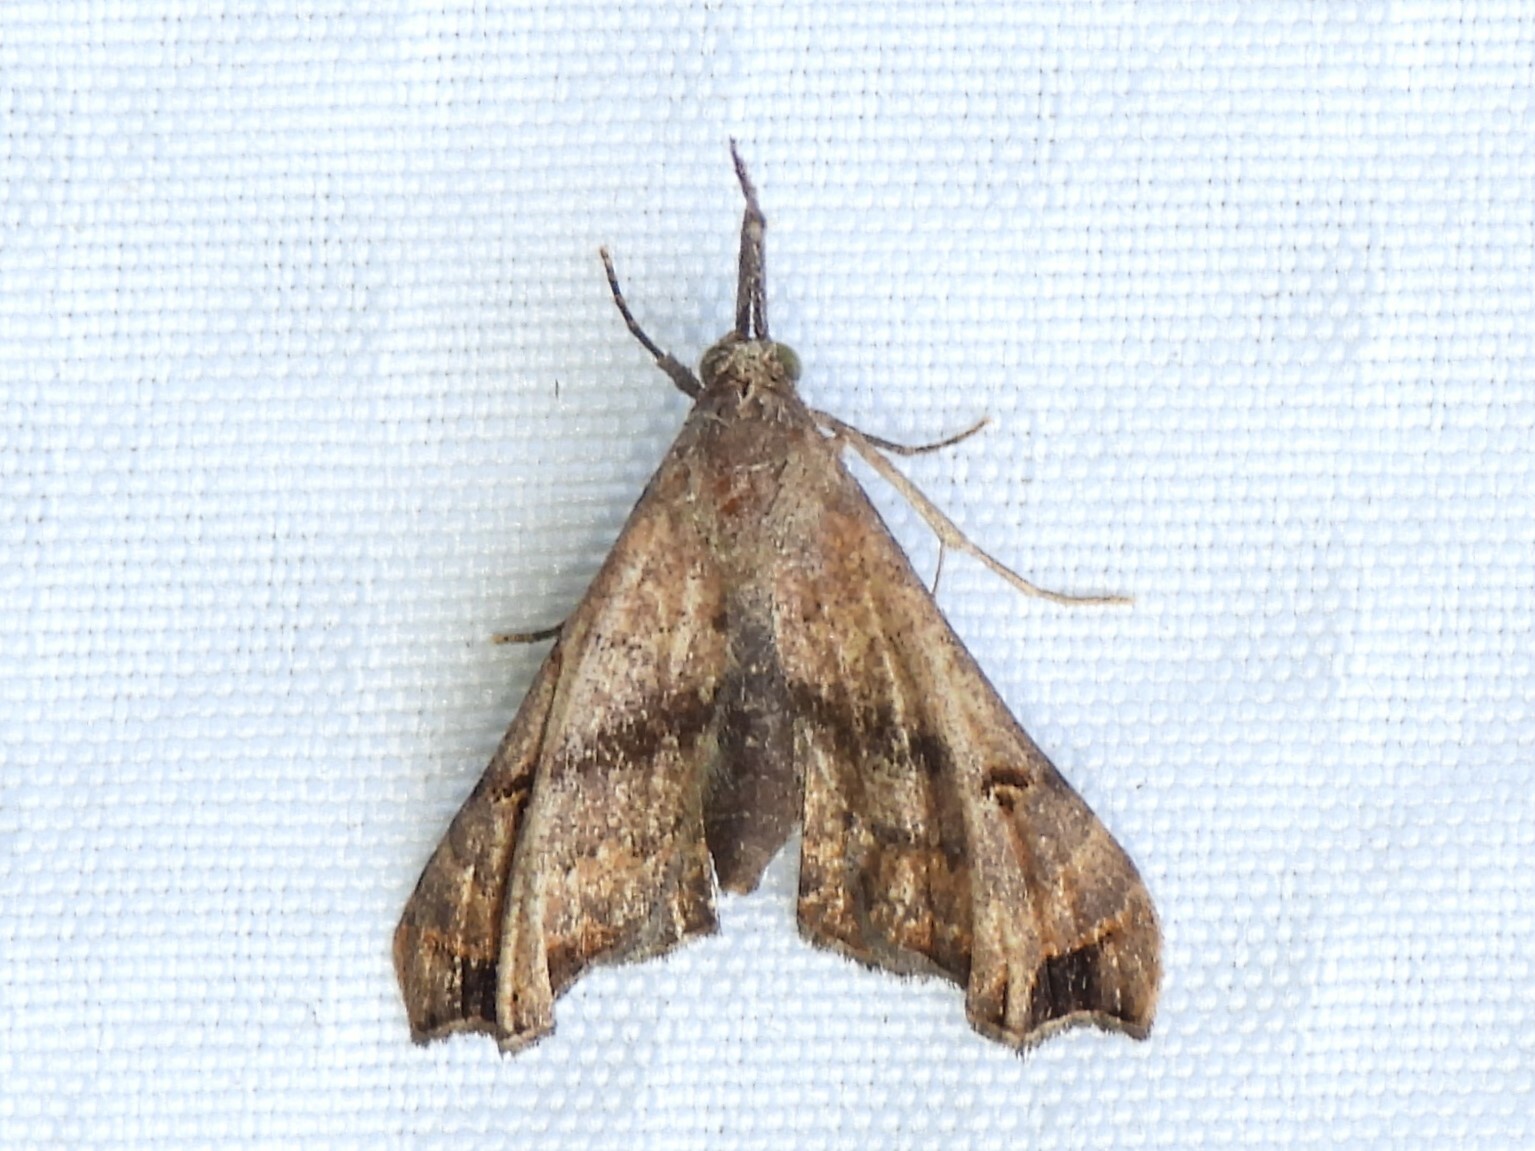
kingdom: Animalia
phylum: Arthropoda
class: Insecta
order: Lepidoptera
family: Erebidae
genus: Palthis
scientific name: Palthis asopialis
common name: Faint-spotted palthis moth
